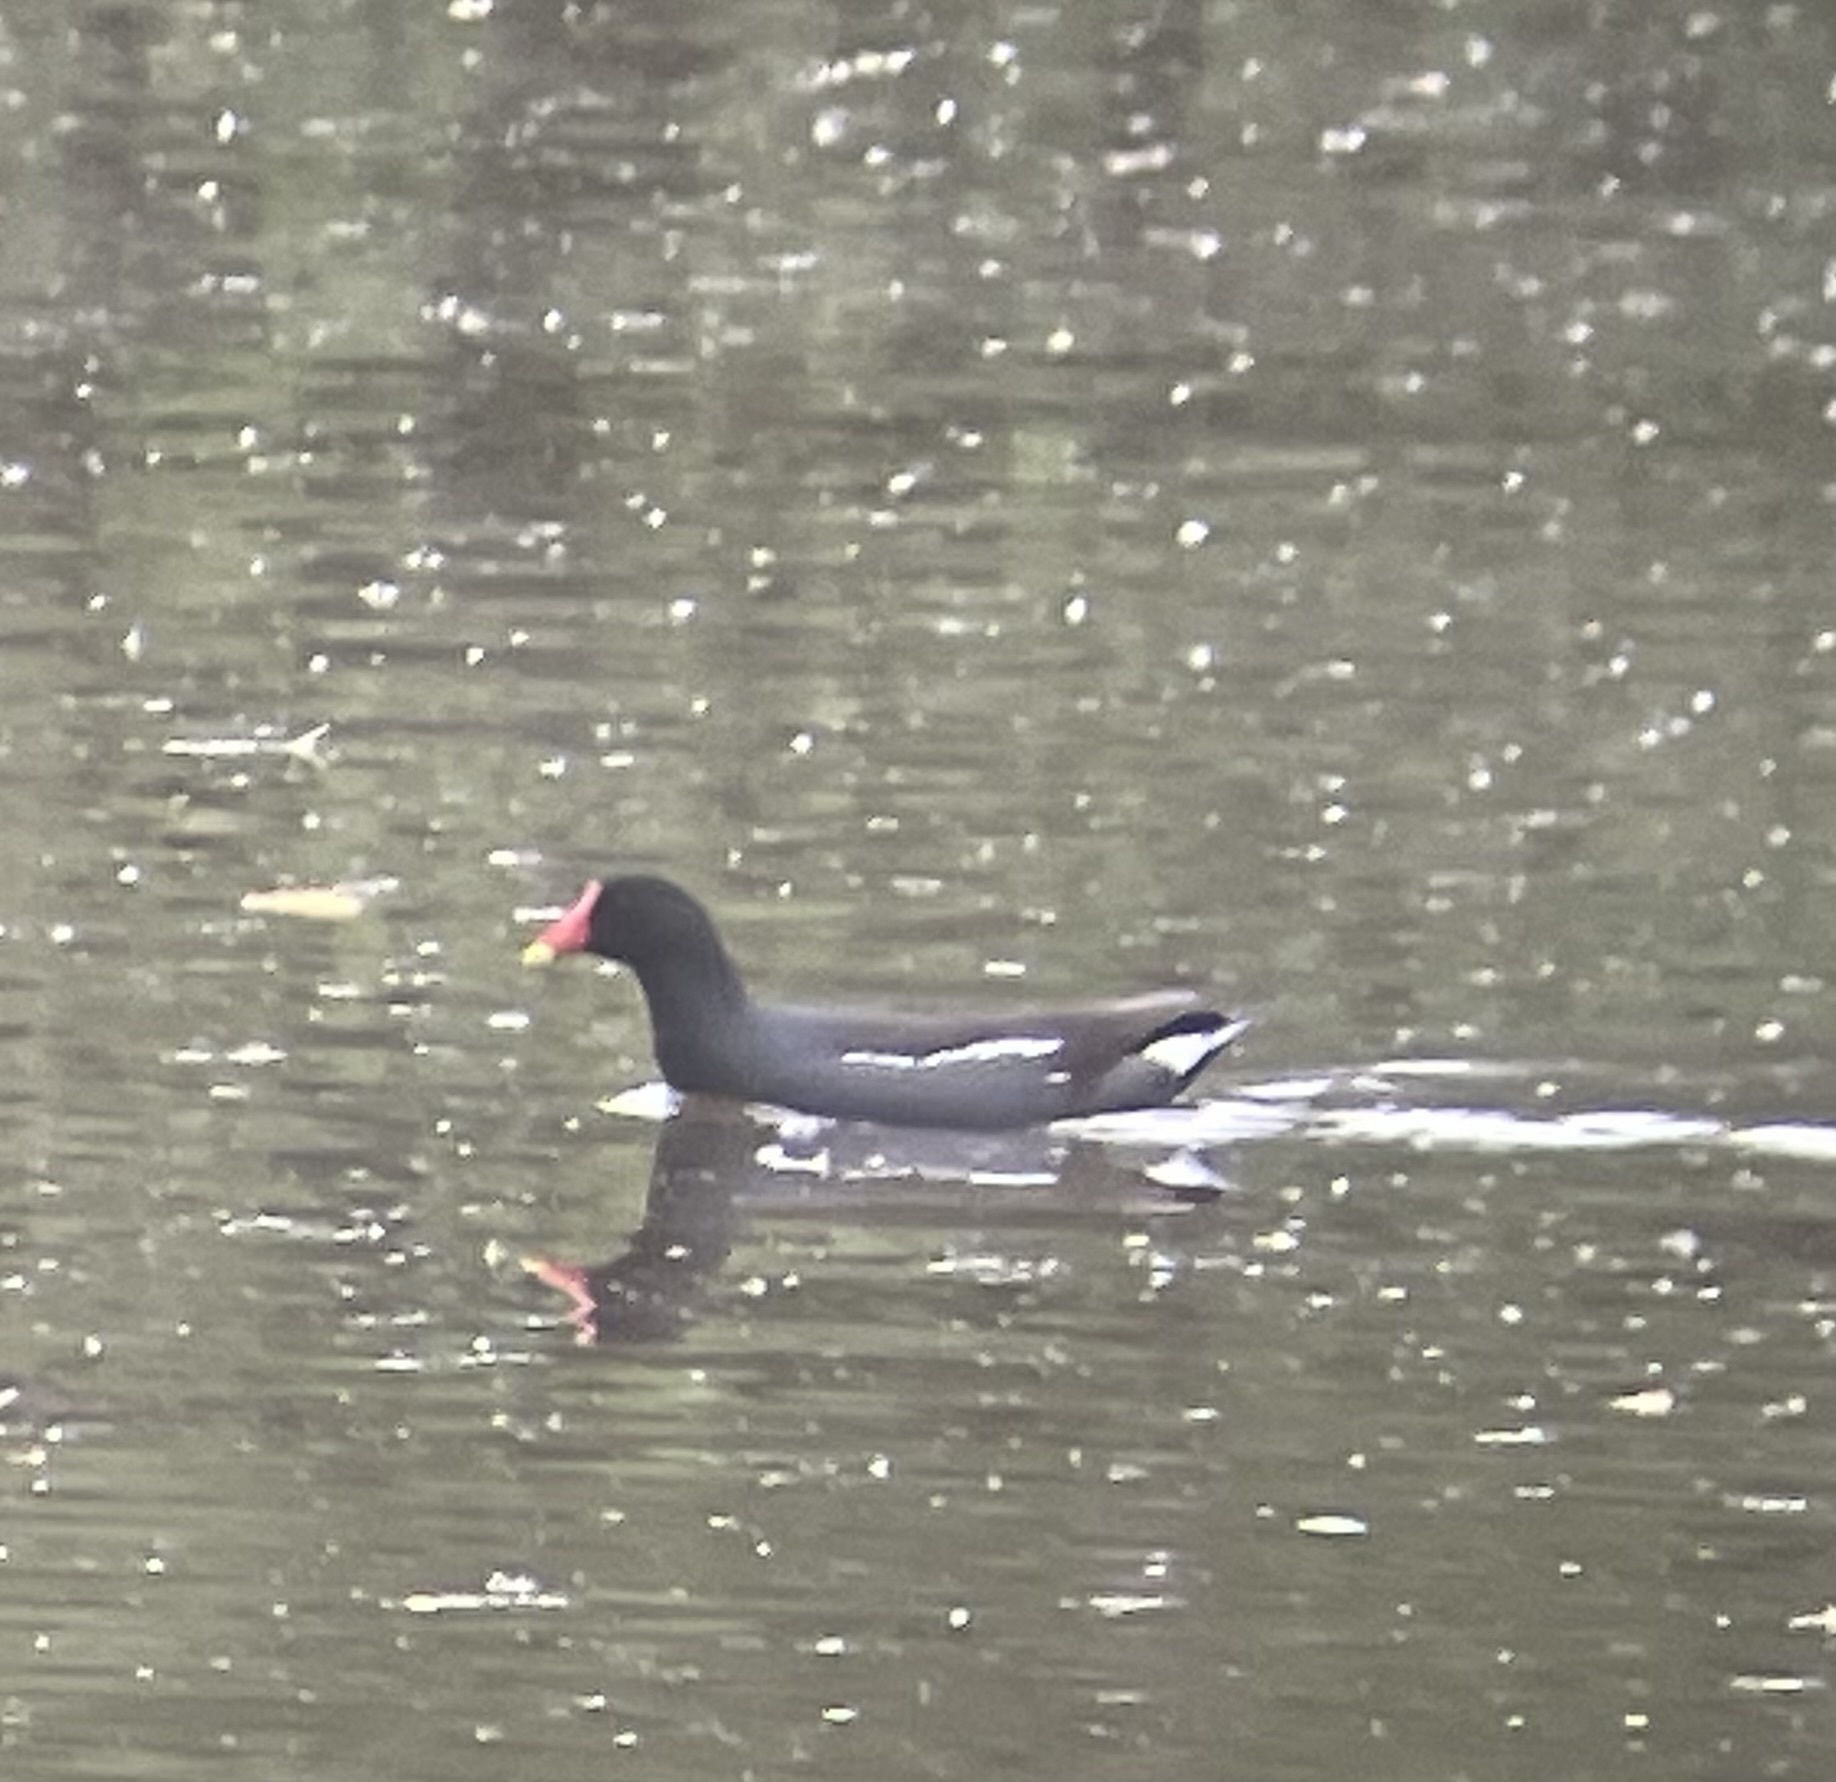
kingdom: Animalia
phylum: Chordata
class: Aves
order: Gruiformes
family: Rallidae
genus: Gallinula
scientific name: Gallinula chloropus
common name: Common moorhen
